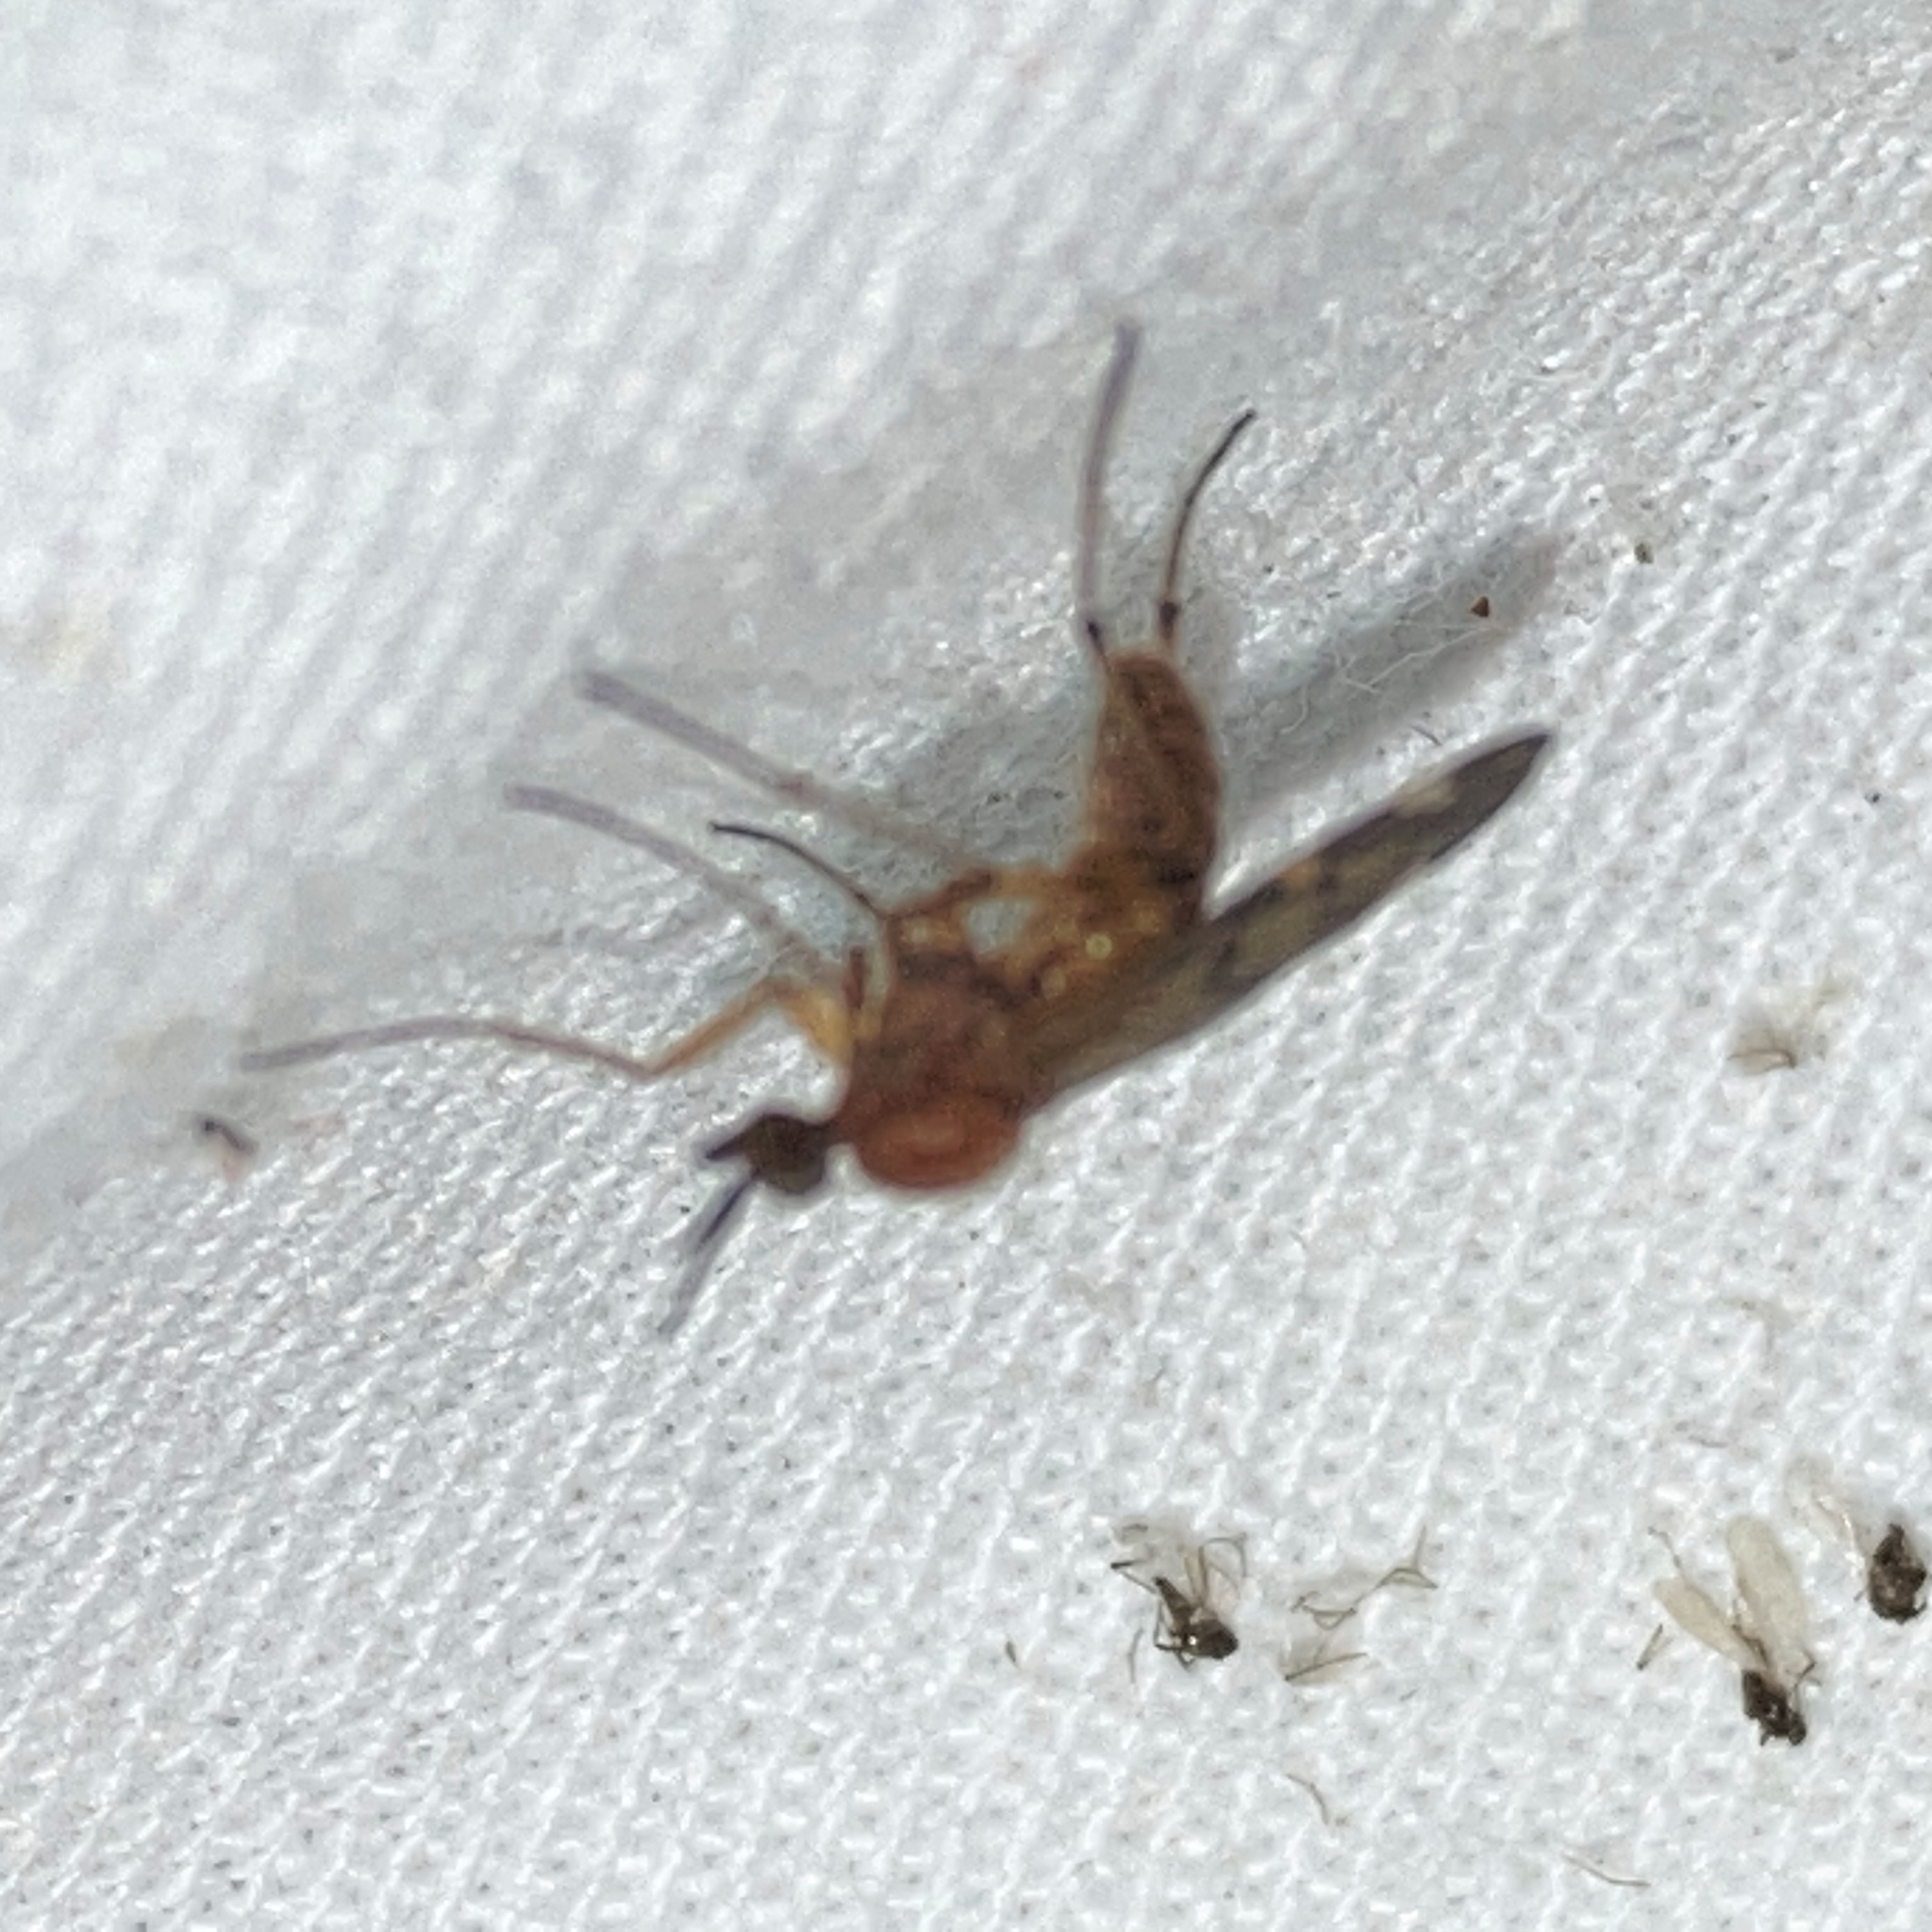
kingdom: Animalia
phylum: Arthropoda
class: Insecta
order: Diptera
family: Anisopodidae
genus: Sylvicola
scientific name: Sylvicola alternata
